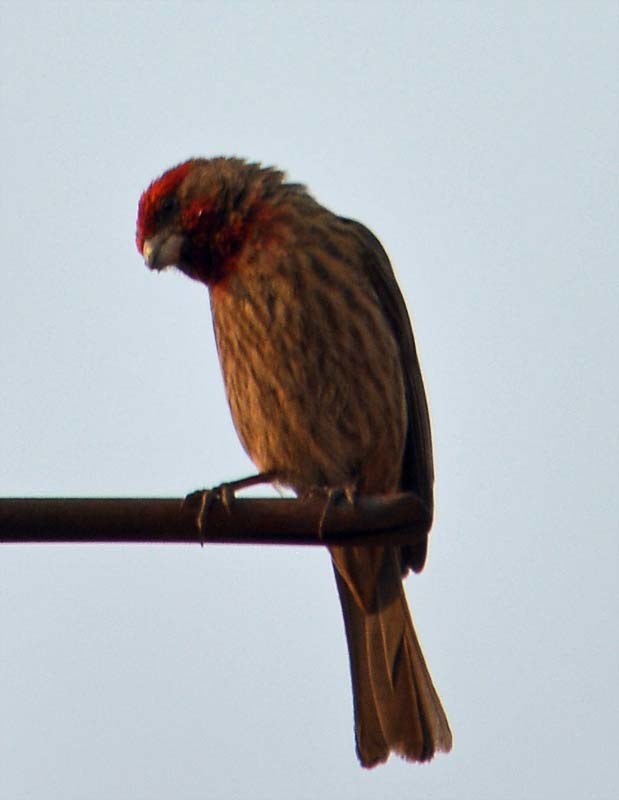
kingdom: Animalia
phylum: Chordata
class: Aves
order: Passeriformes
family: Fringillidae
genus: Haemorhous
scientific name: Haemorhous mexicanus
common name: House finch
